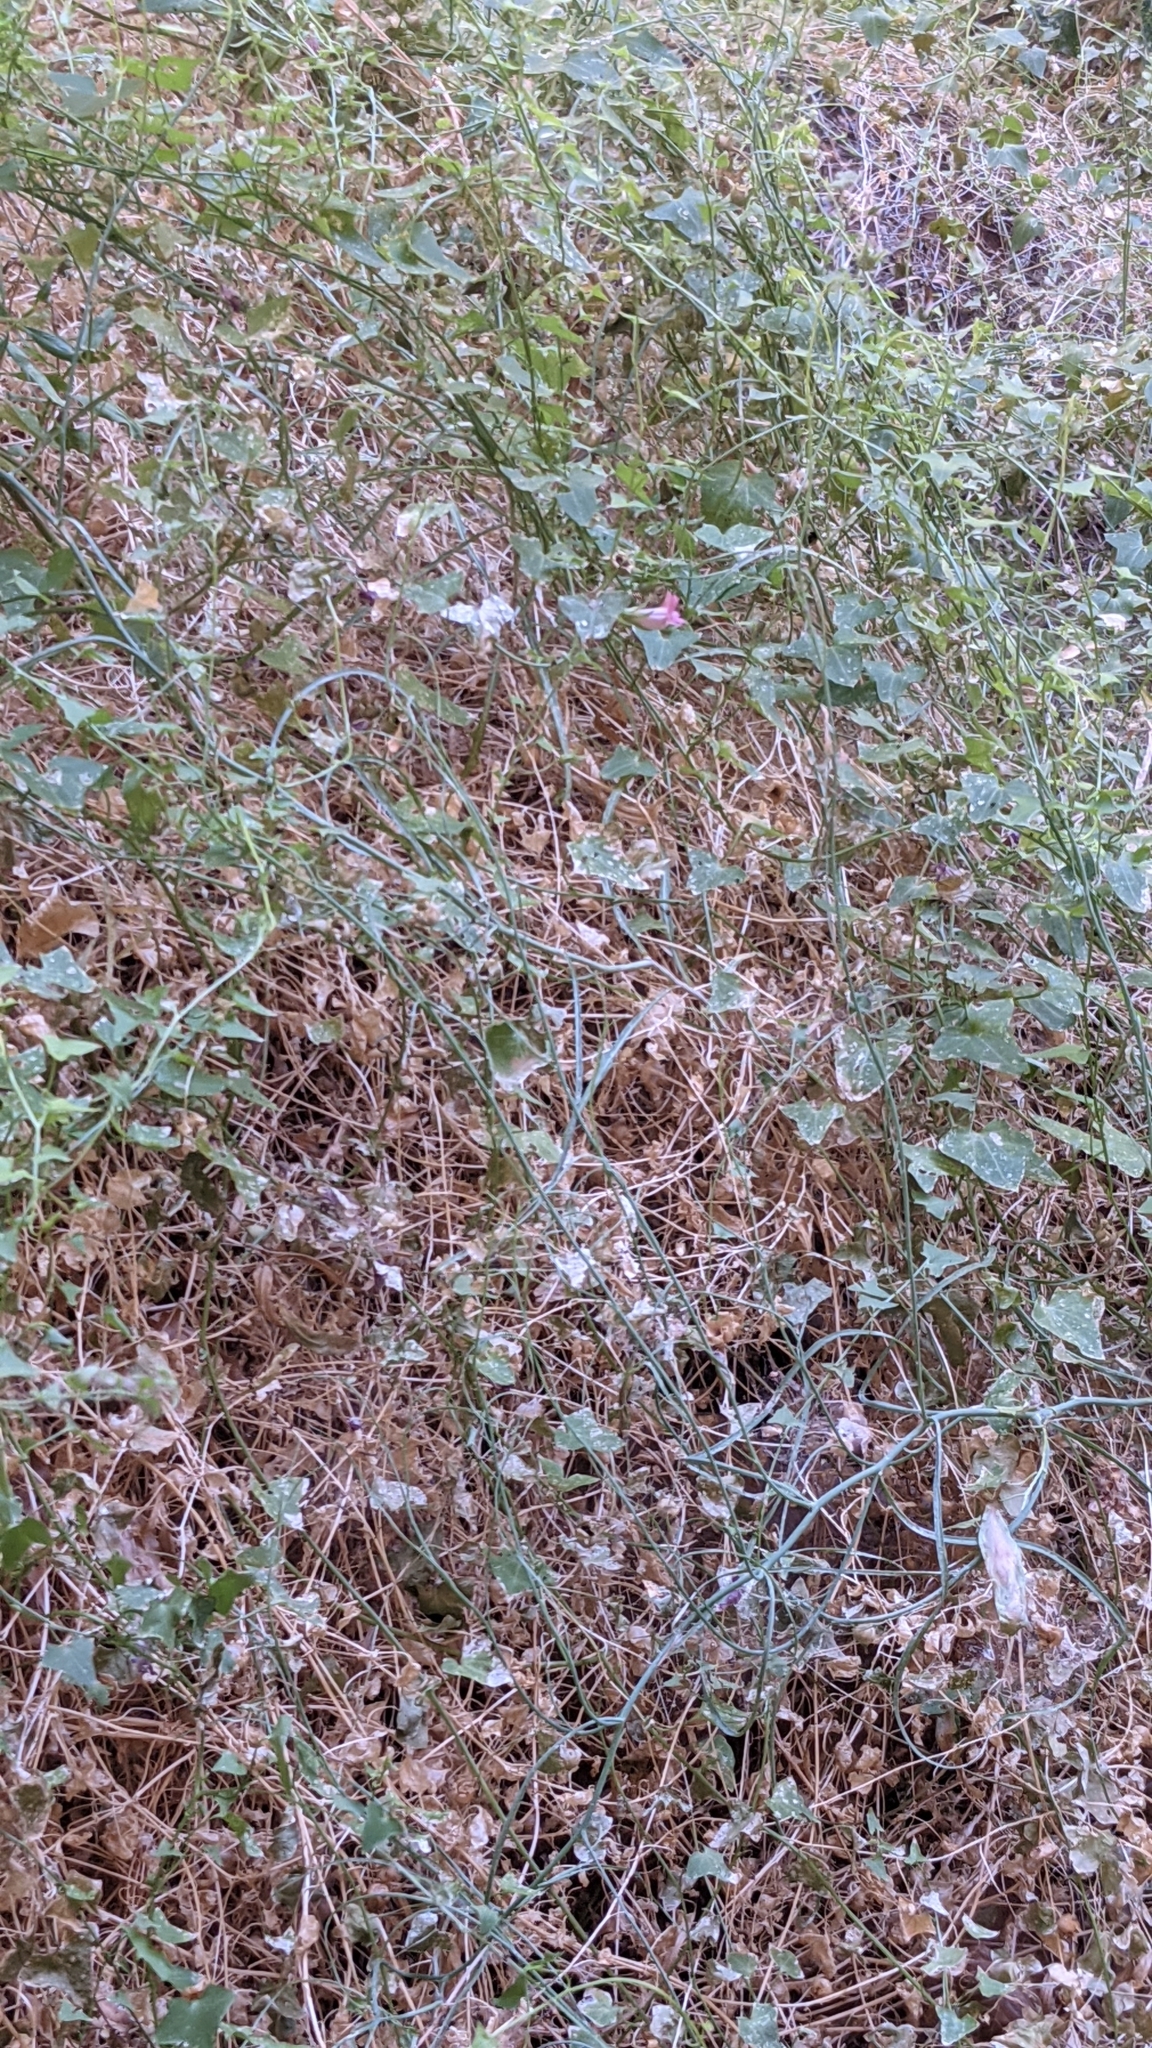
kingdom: Plantae
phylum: Tracheophyta
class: Magnoliopsida
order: Lamiales
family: Plantaginaceae
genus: Maurandella
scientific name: Maurandella antirrhiniflora
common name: Violet twining-snapdragon
